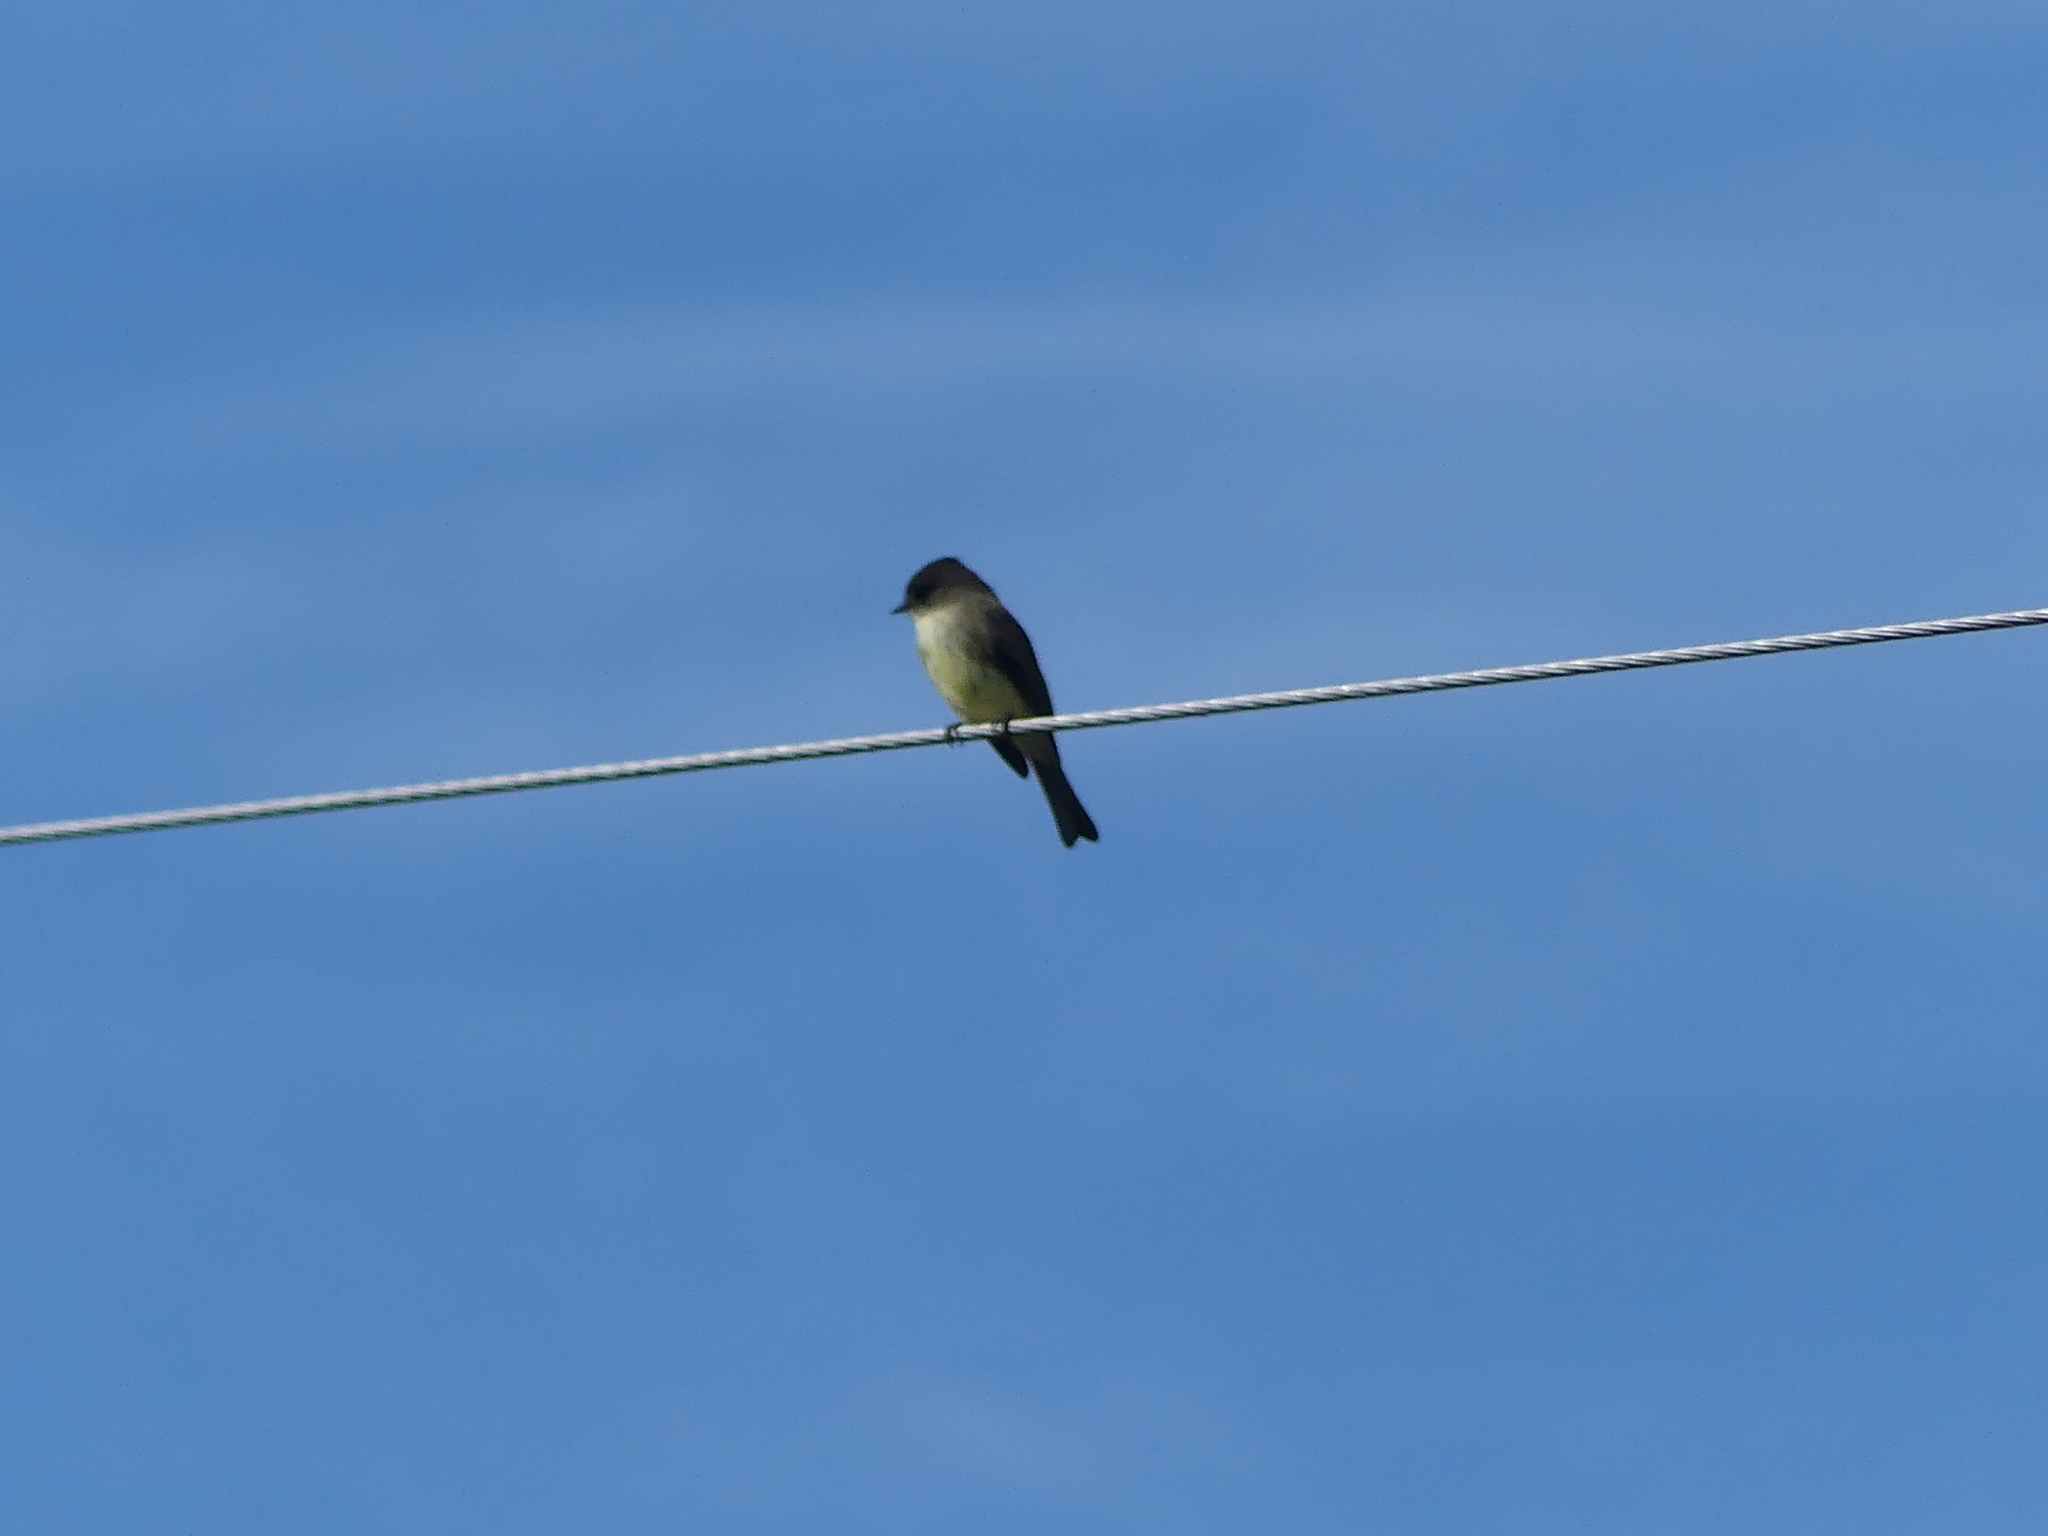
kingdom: Animalia
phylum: Chordata
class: Aves
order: Passeriformes
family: Tyrannidae
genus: Sayornis
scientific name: Sayornis phoebe
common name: Eastern phoebe
